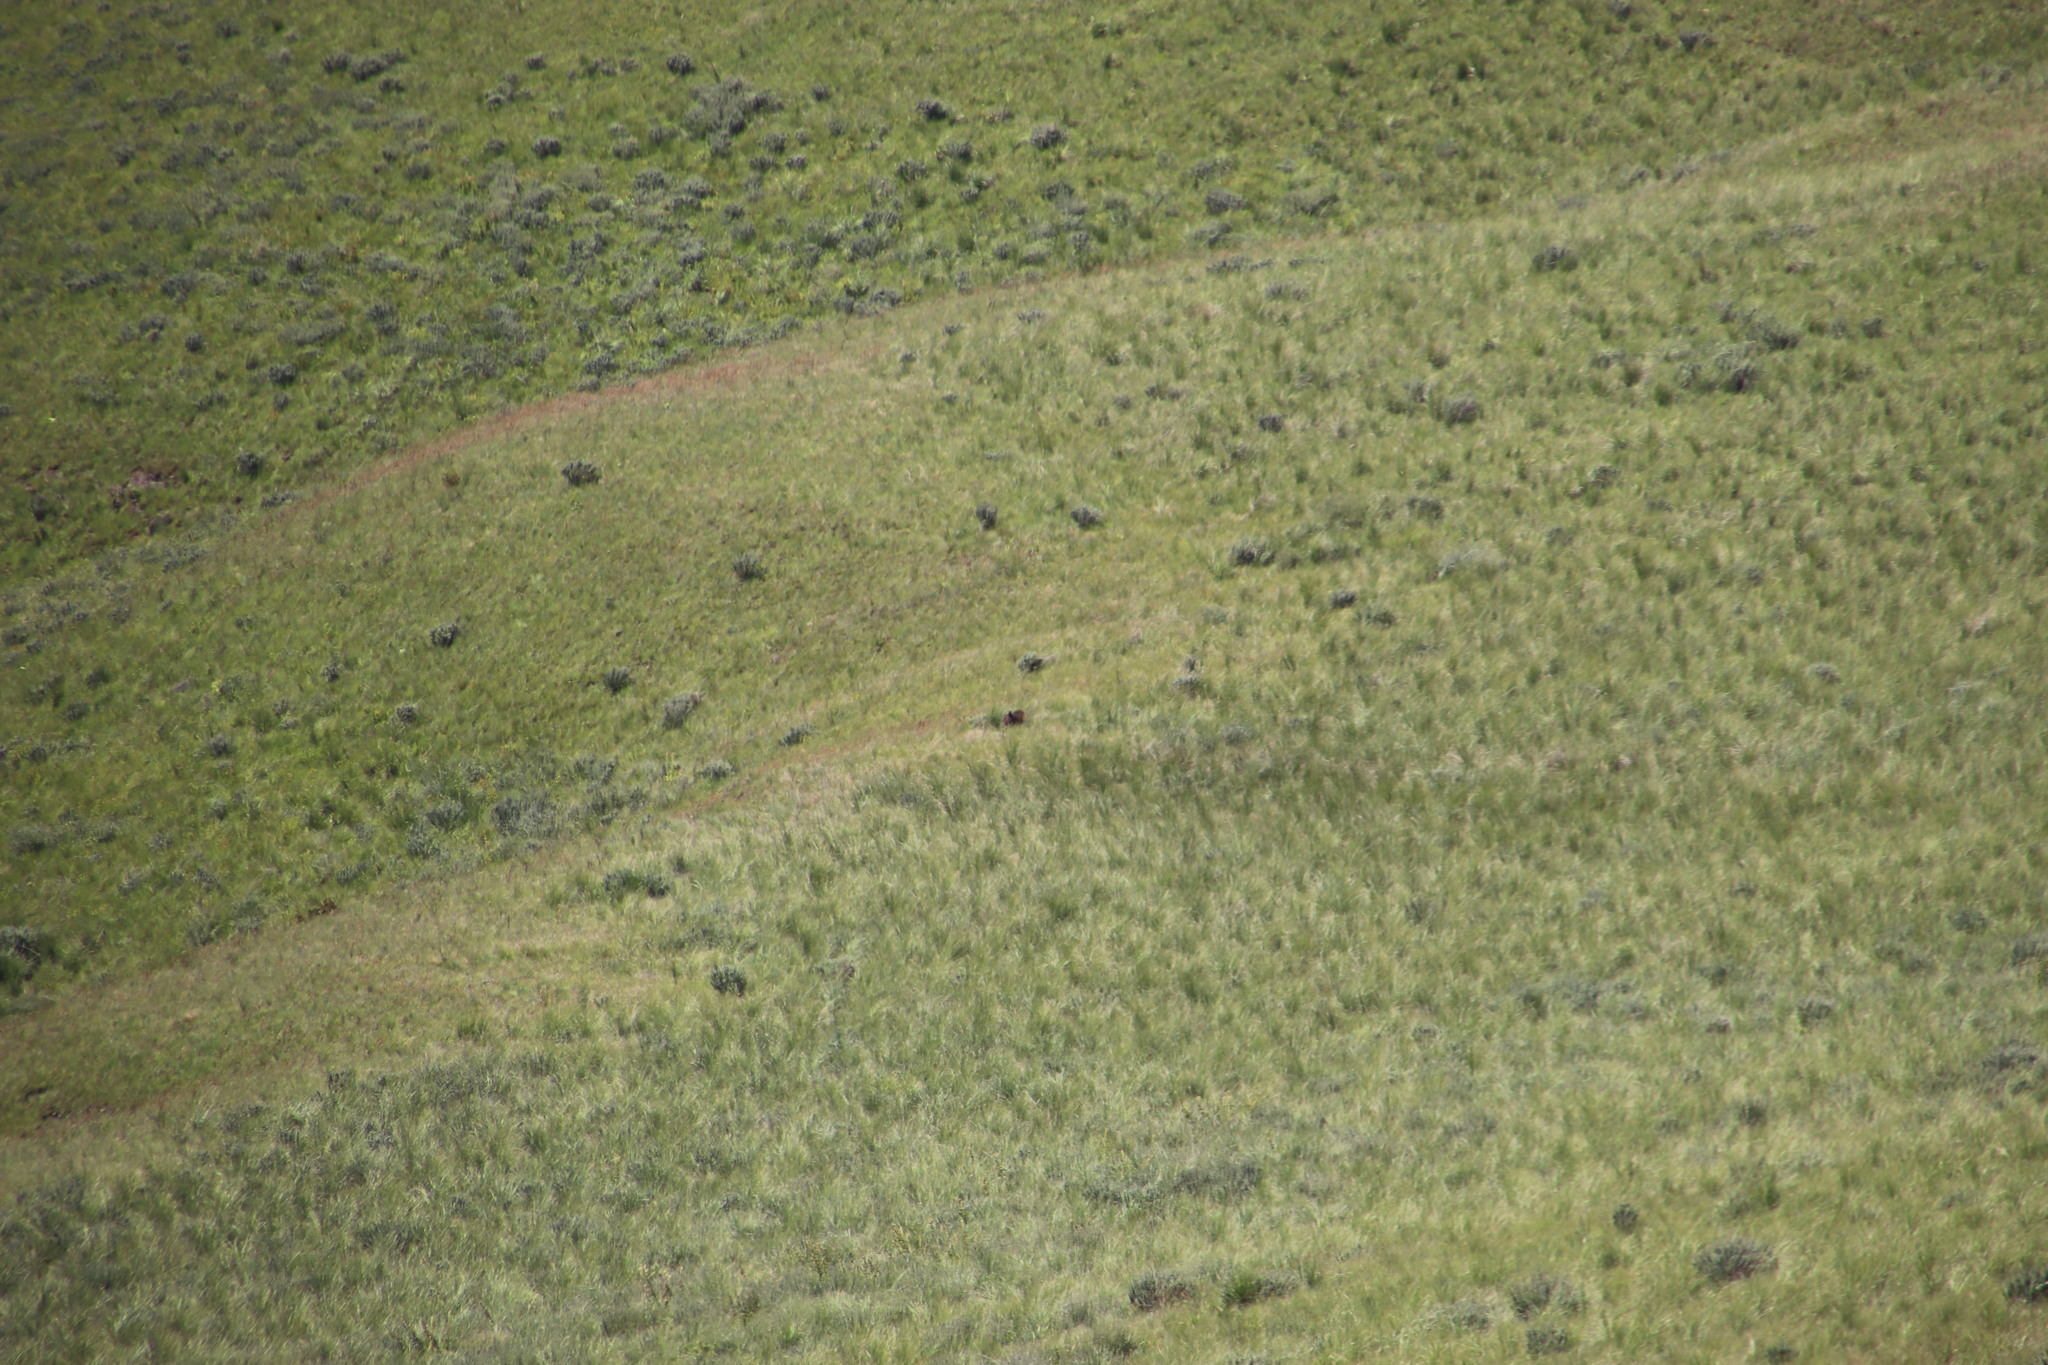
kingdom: Animalia
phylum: Chordata
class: Mammalia
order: Primates
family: Cercopithecidae
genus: Papio
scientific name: Papio ursinus
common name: Chacma baboon
